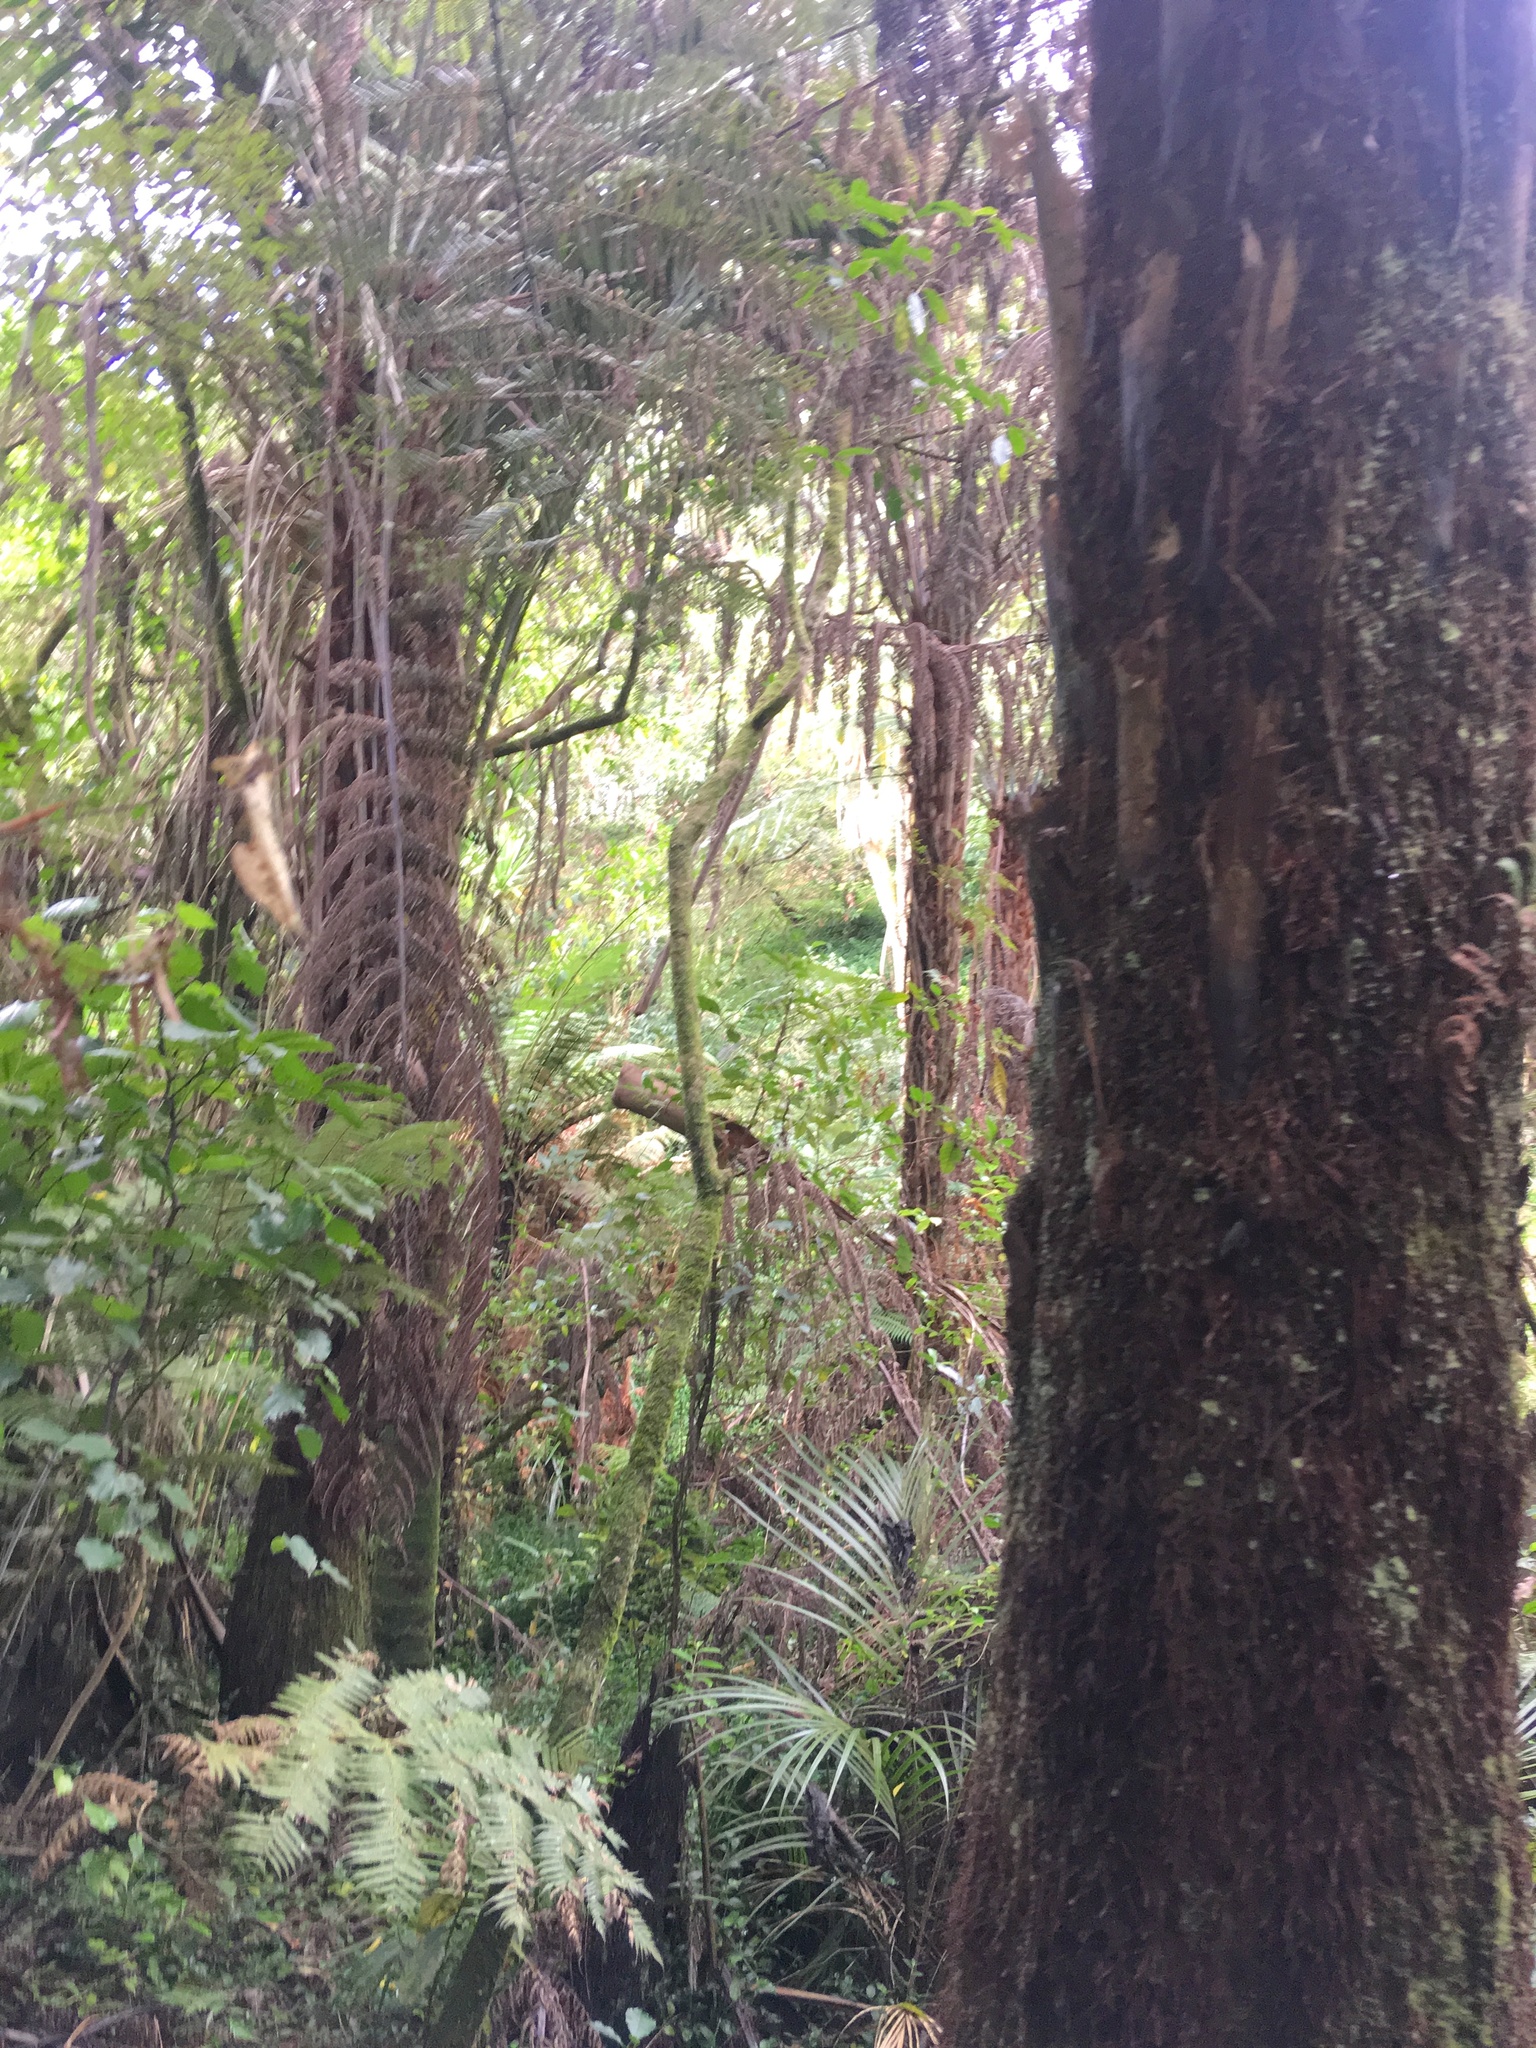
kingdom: Plantae
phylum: Tracheophyta
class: Magnoliopsida
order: Piperales
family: Piperaceae
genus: Macropiper
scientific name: Macropiper excelsum
